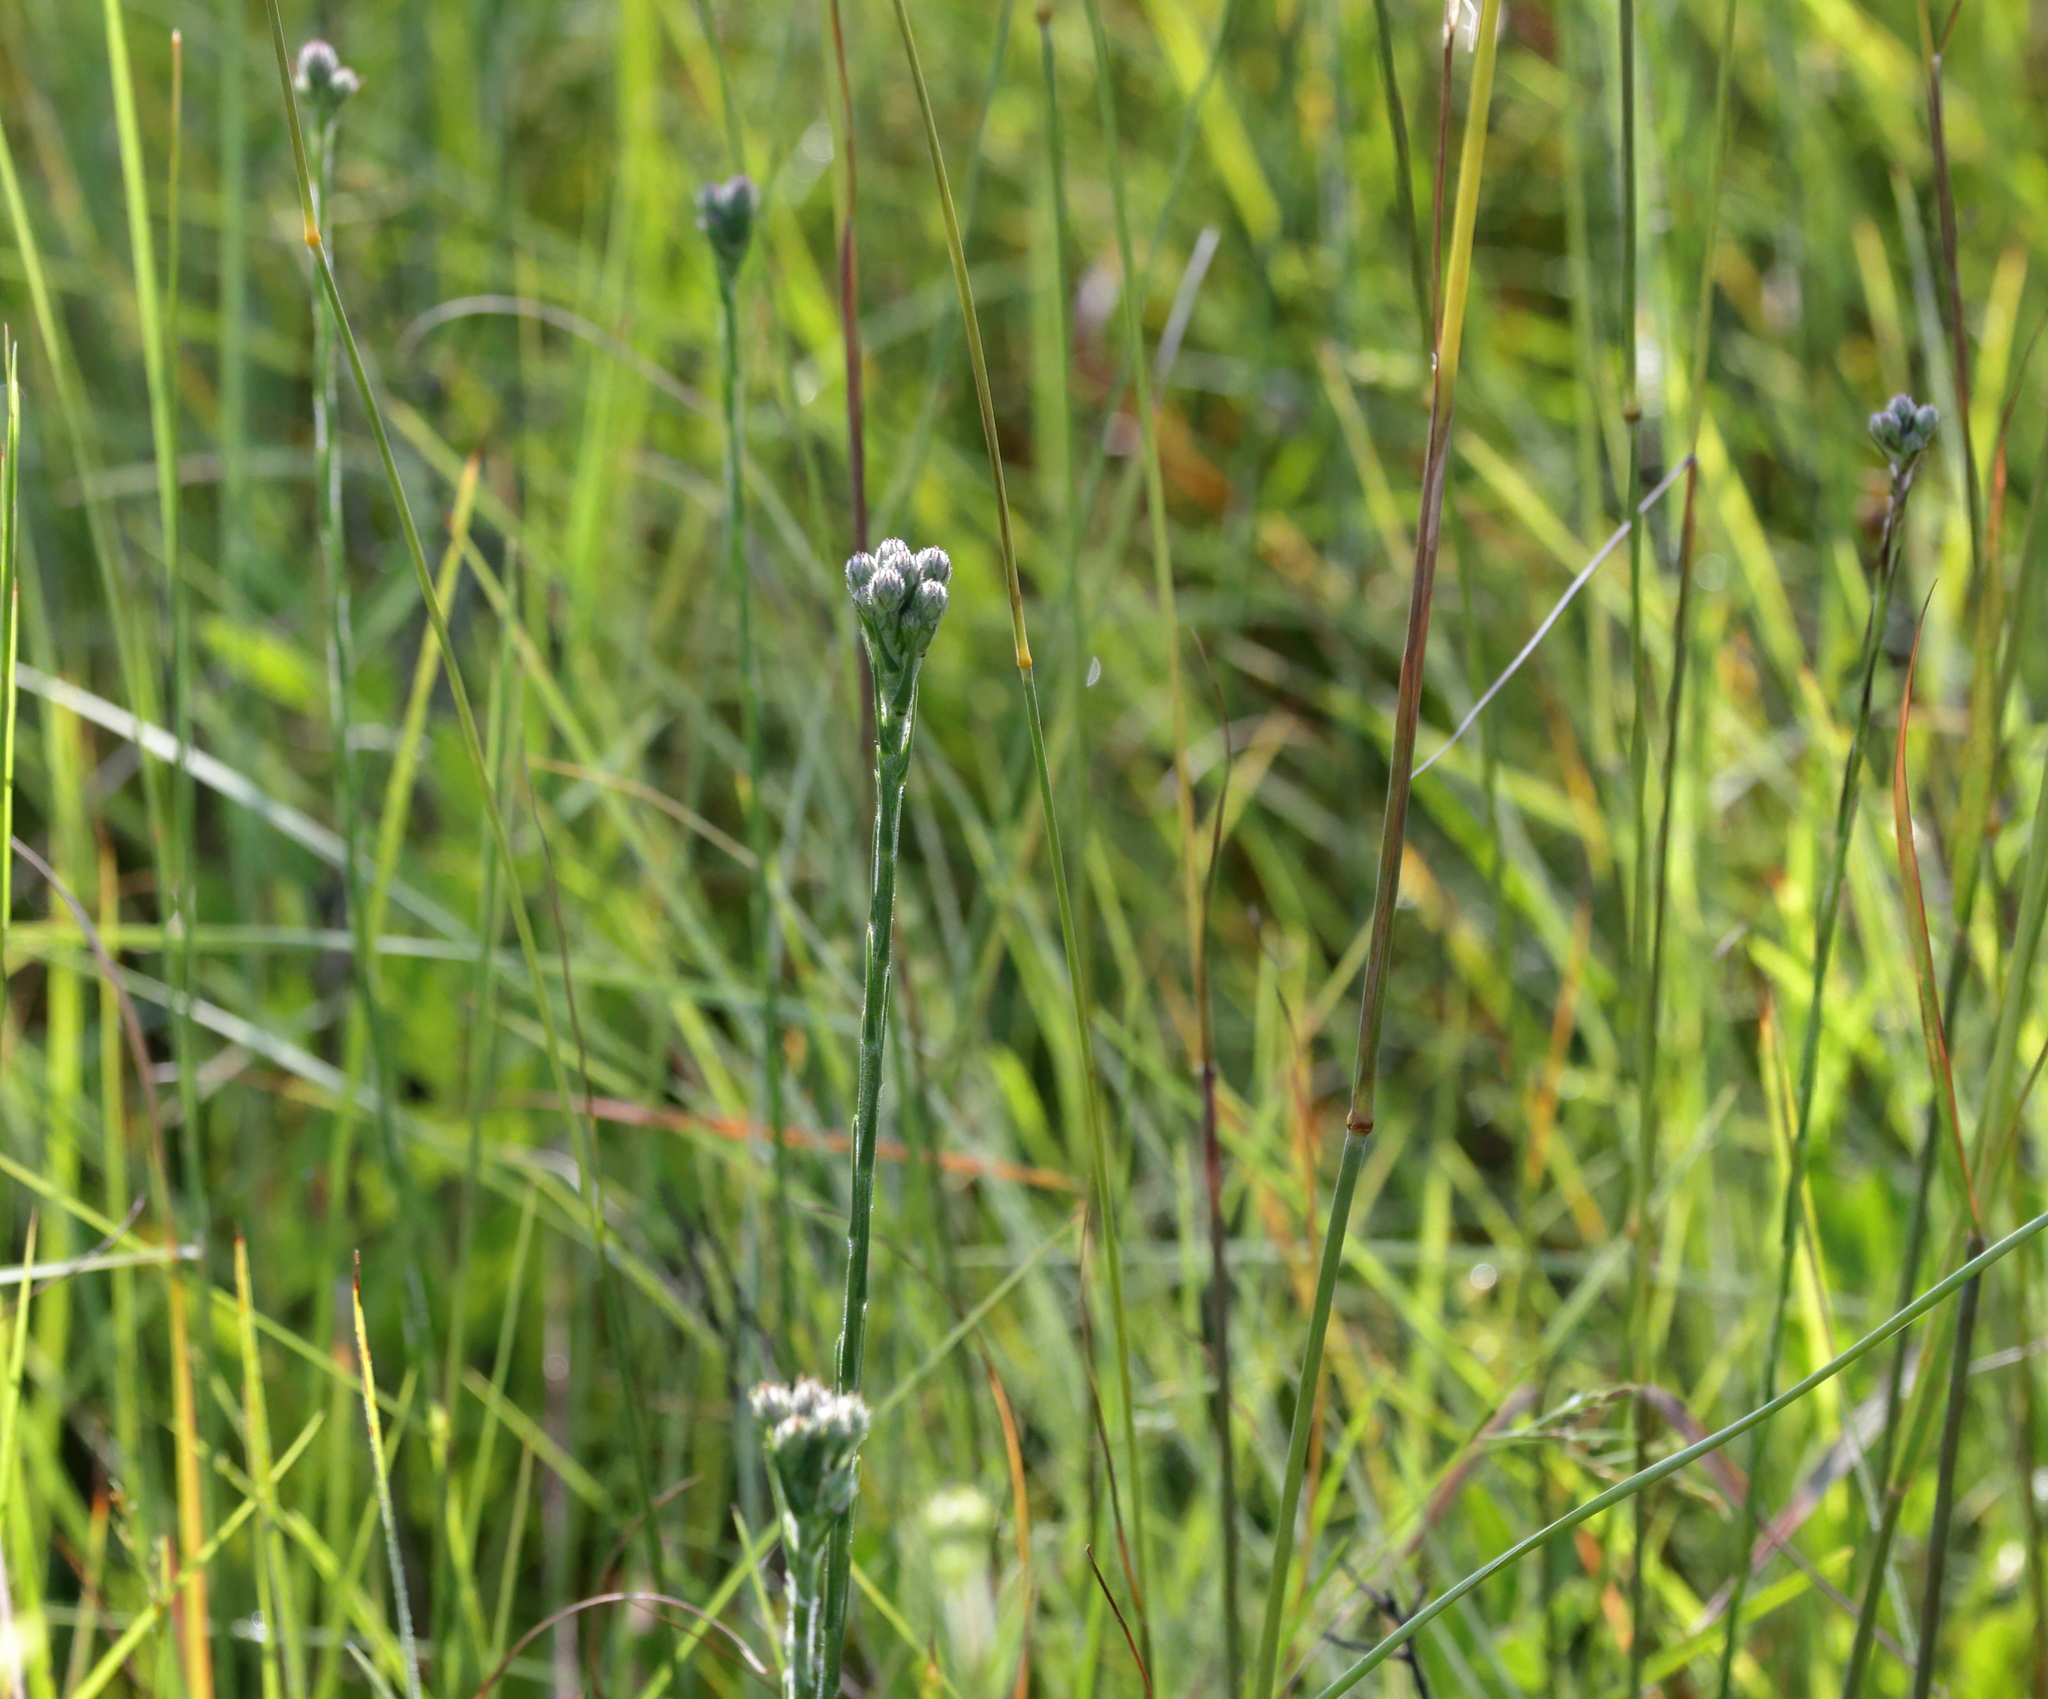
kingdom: Plantae
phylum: Tracheophyta
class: Magnoliopsida
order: Asterales
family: Asteraceae
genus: Carphephorus
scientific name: Carphephorus pseudoliatris
